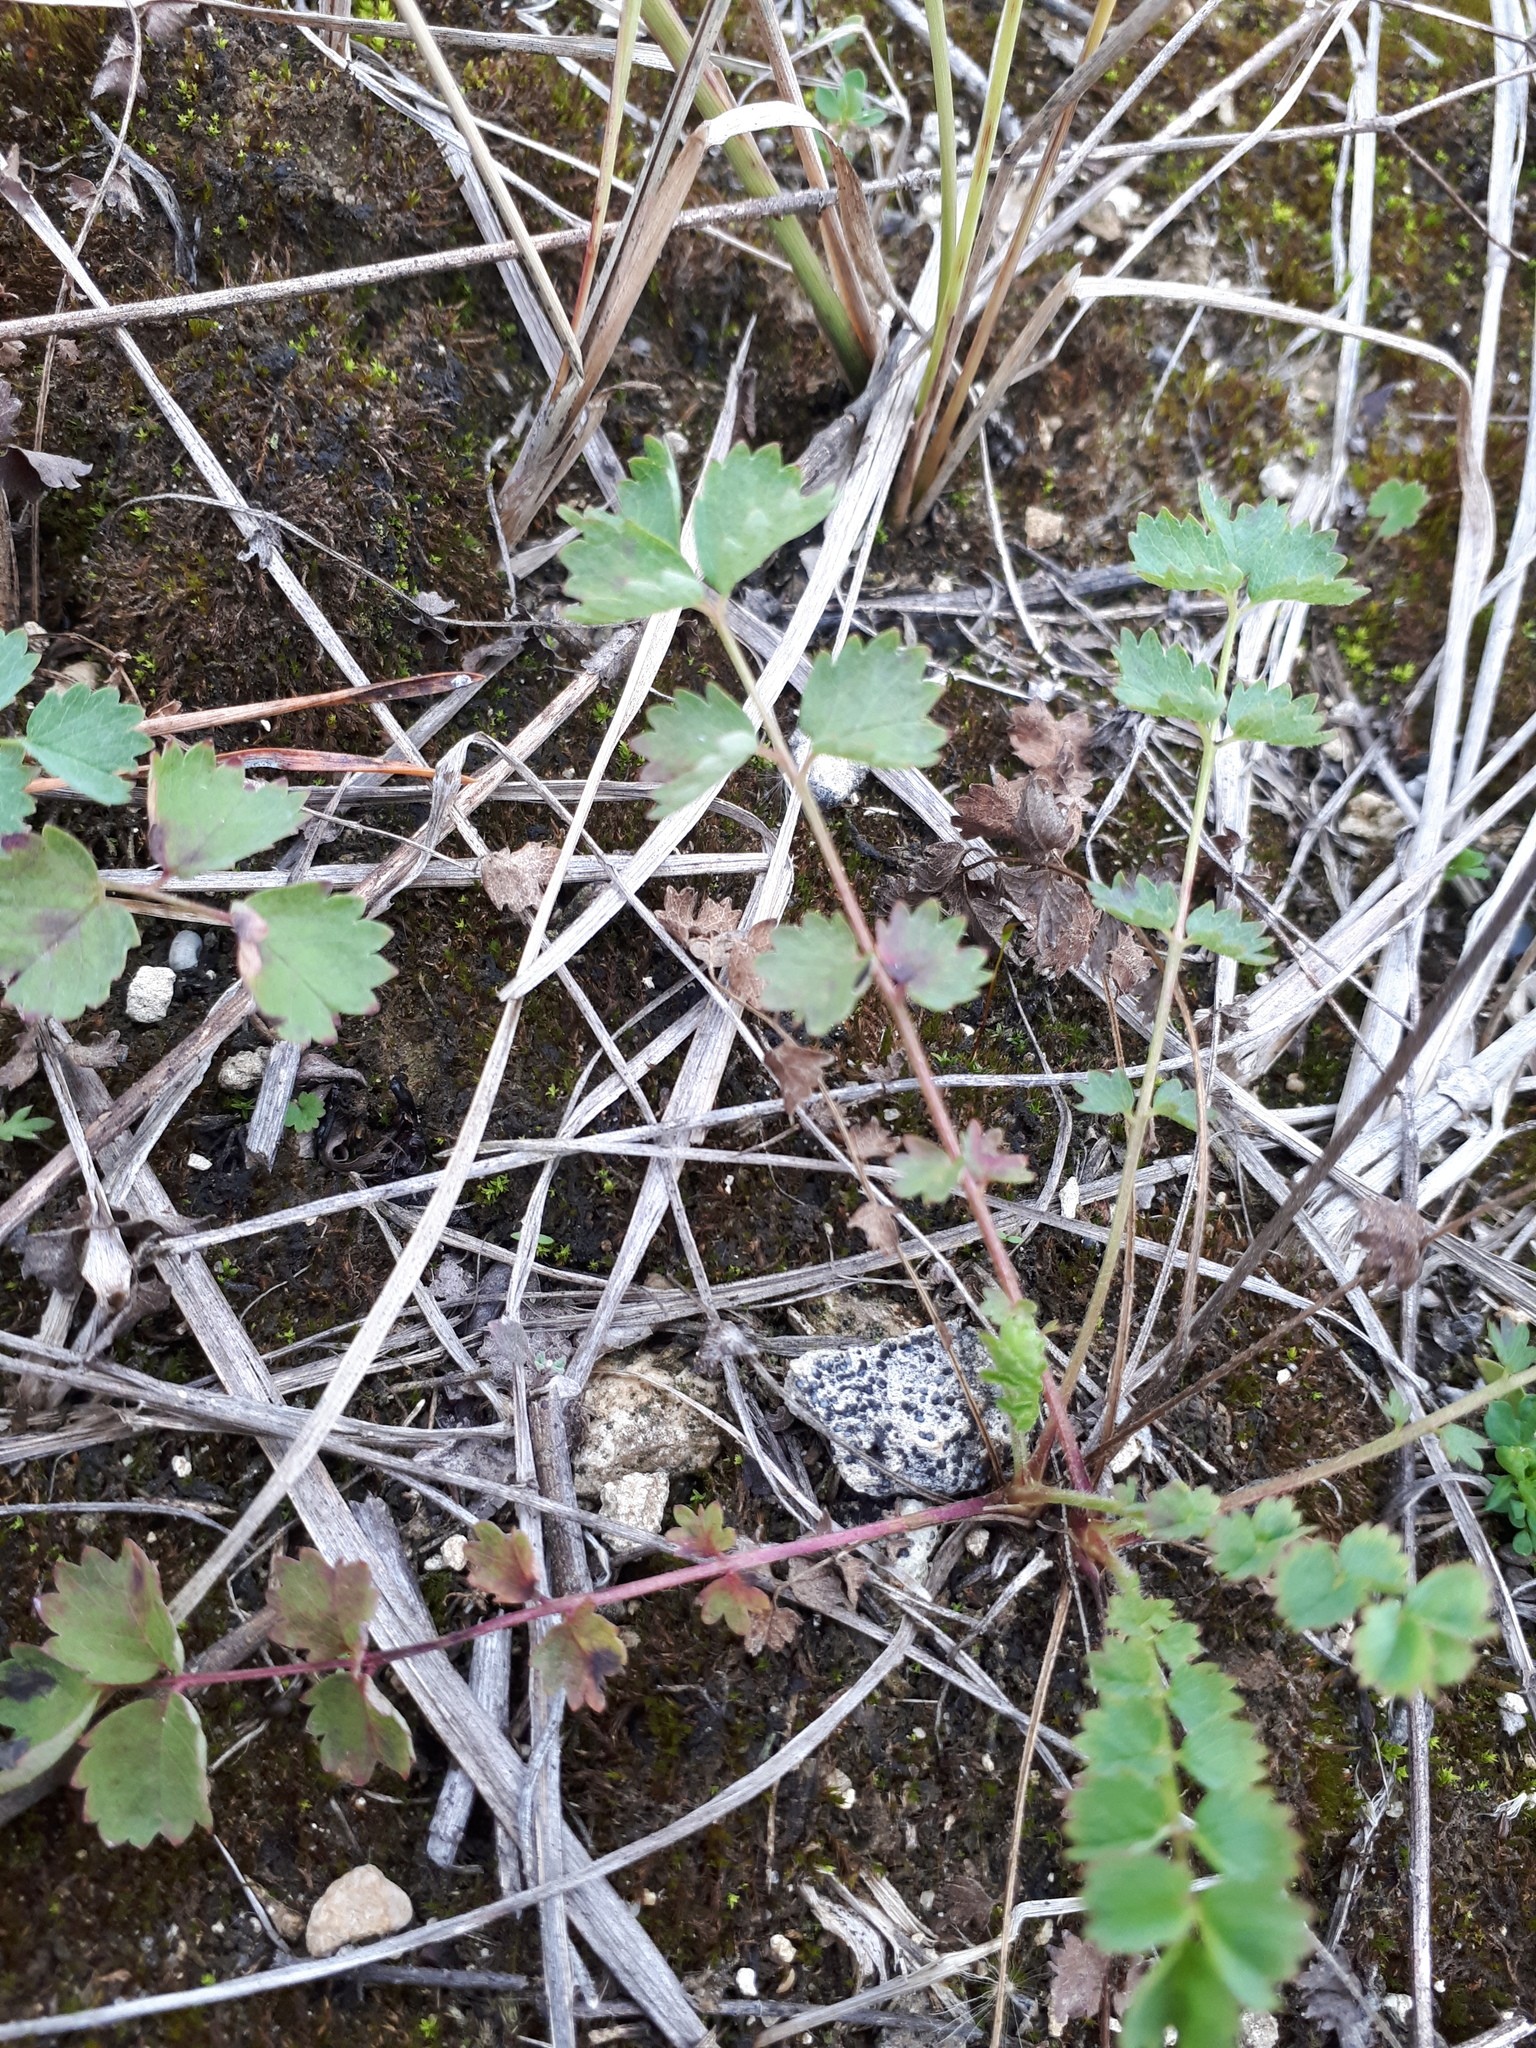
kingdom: Plantae
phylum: Tracheophyta
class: Magnoliopsida
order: Rosales
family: Rosaceae
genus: Poterium
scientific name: Poterium sanguisorba
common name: Salad burnet
